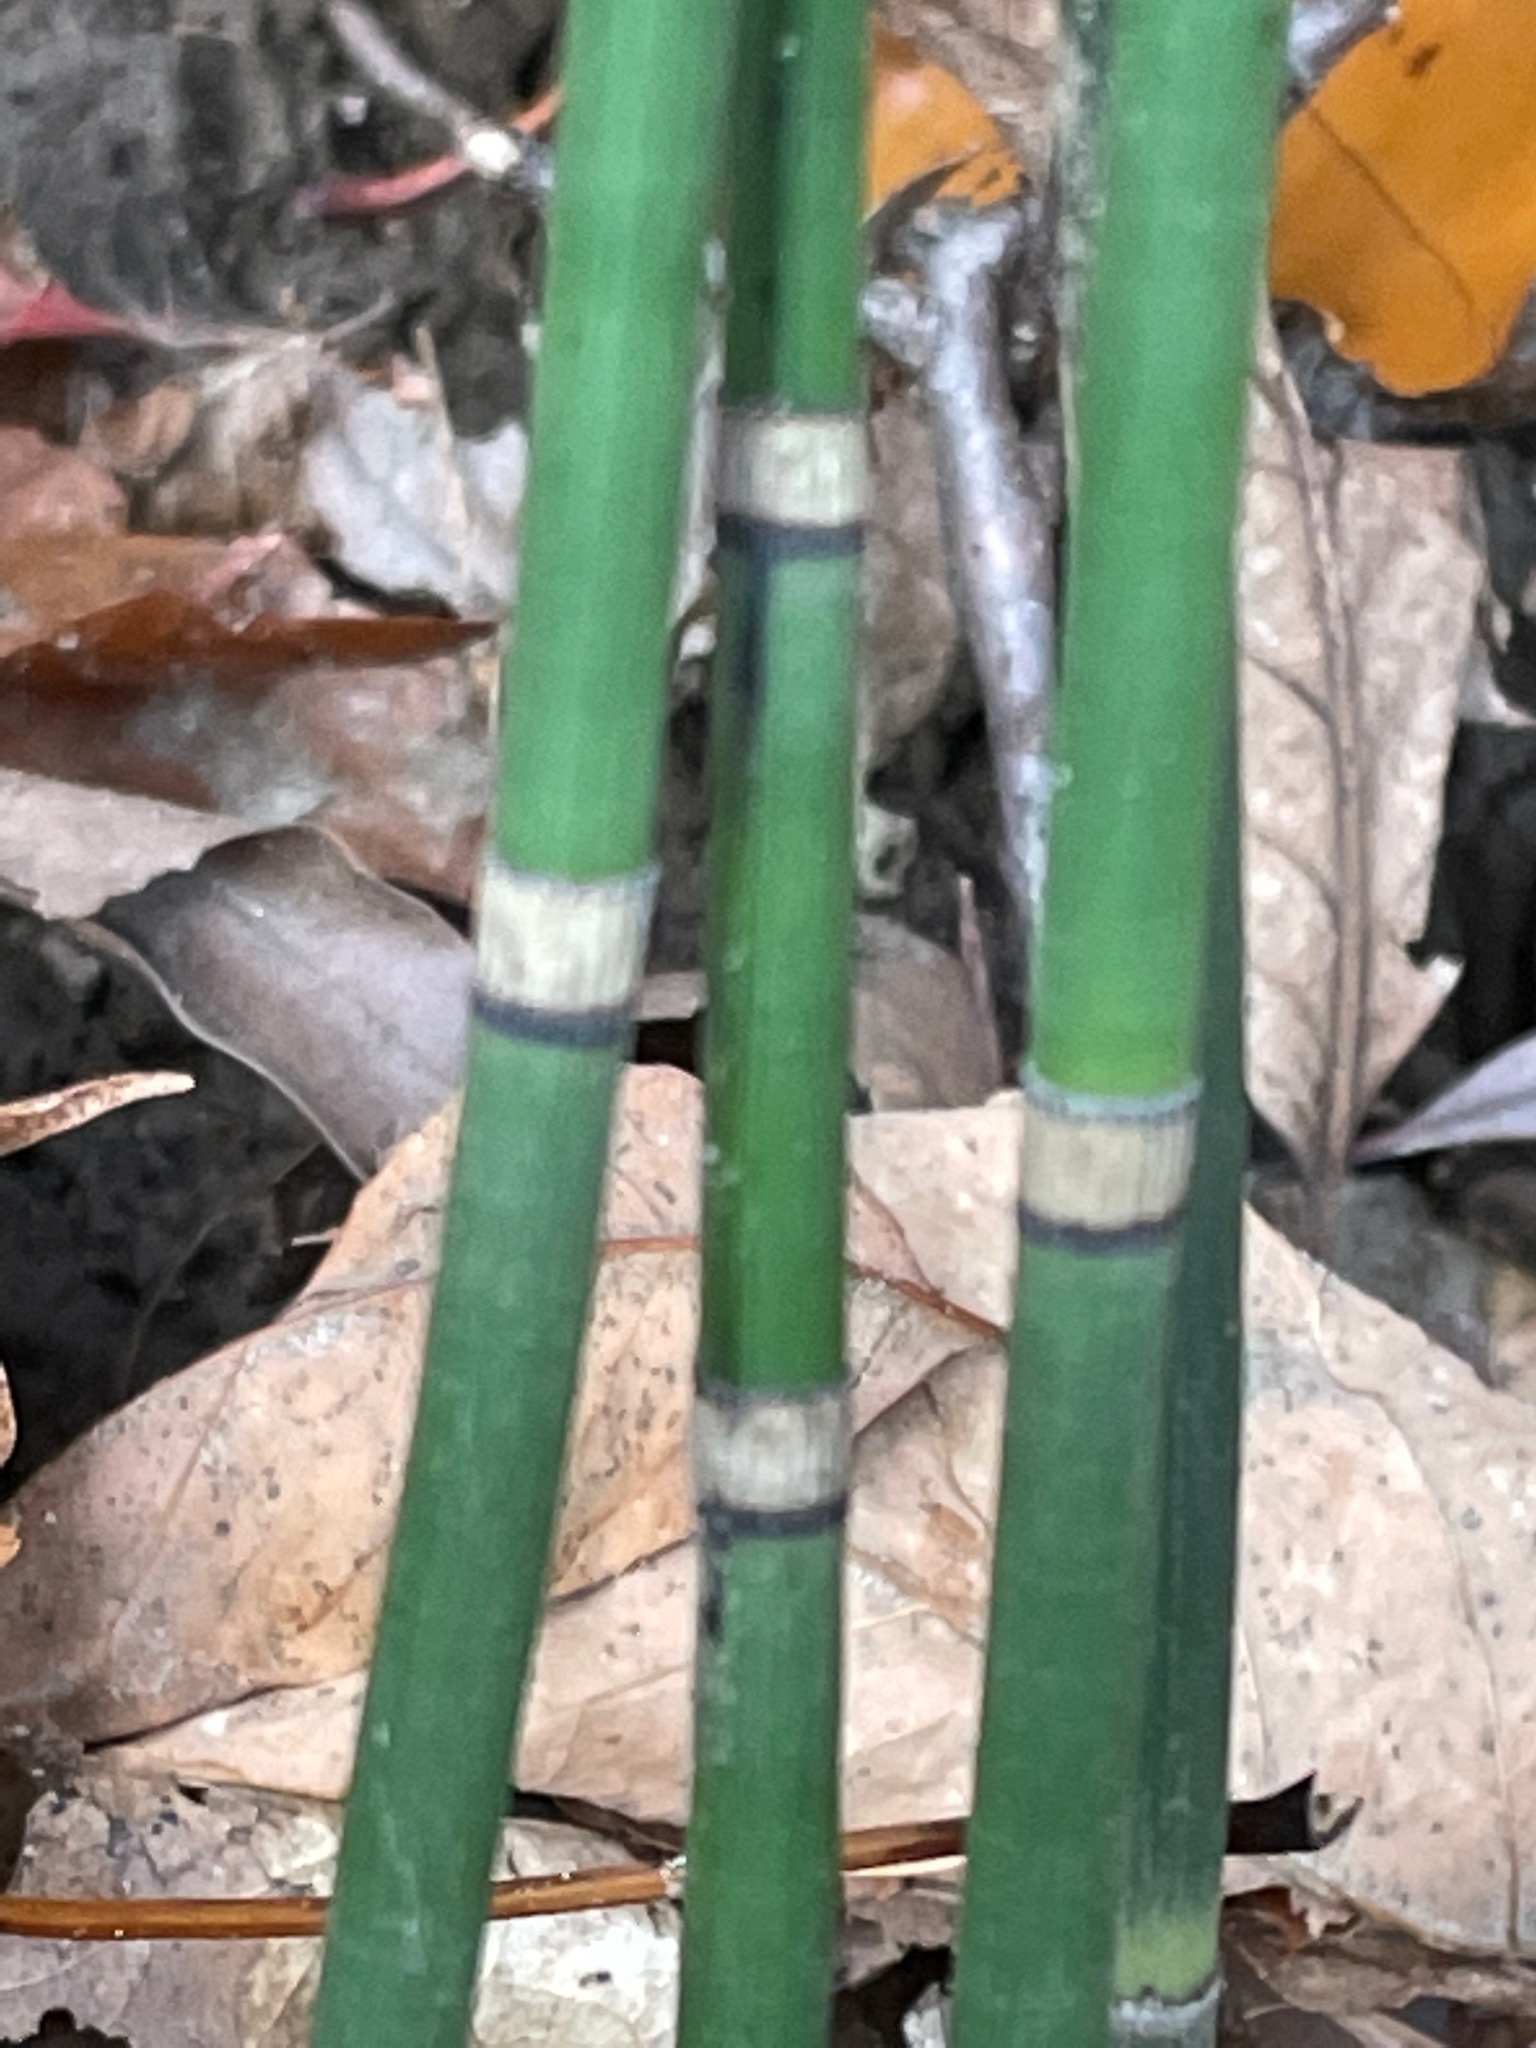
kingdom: Plantae
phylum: Tracheophyta
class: Polypodiopsida
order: Equisetales
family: Equisetaceae
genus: Equisetum
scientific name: Equisetum hyemale
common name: Rough horsetail
